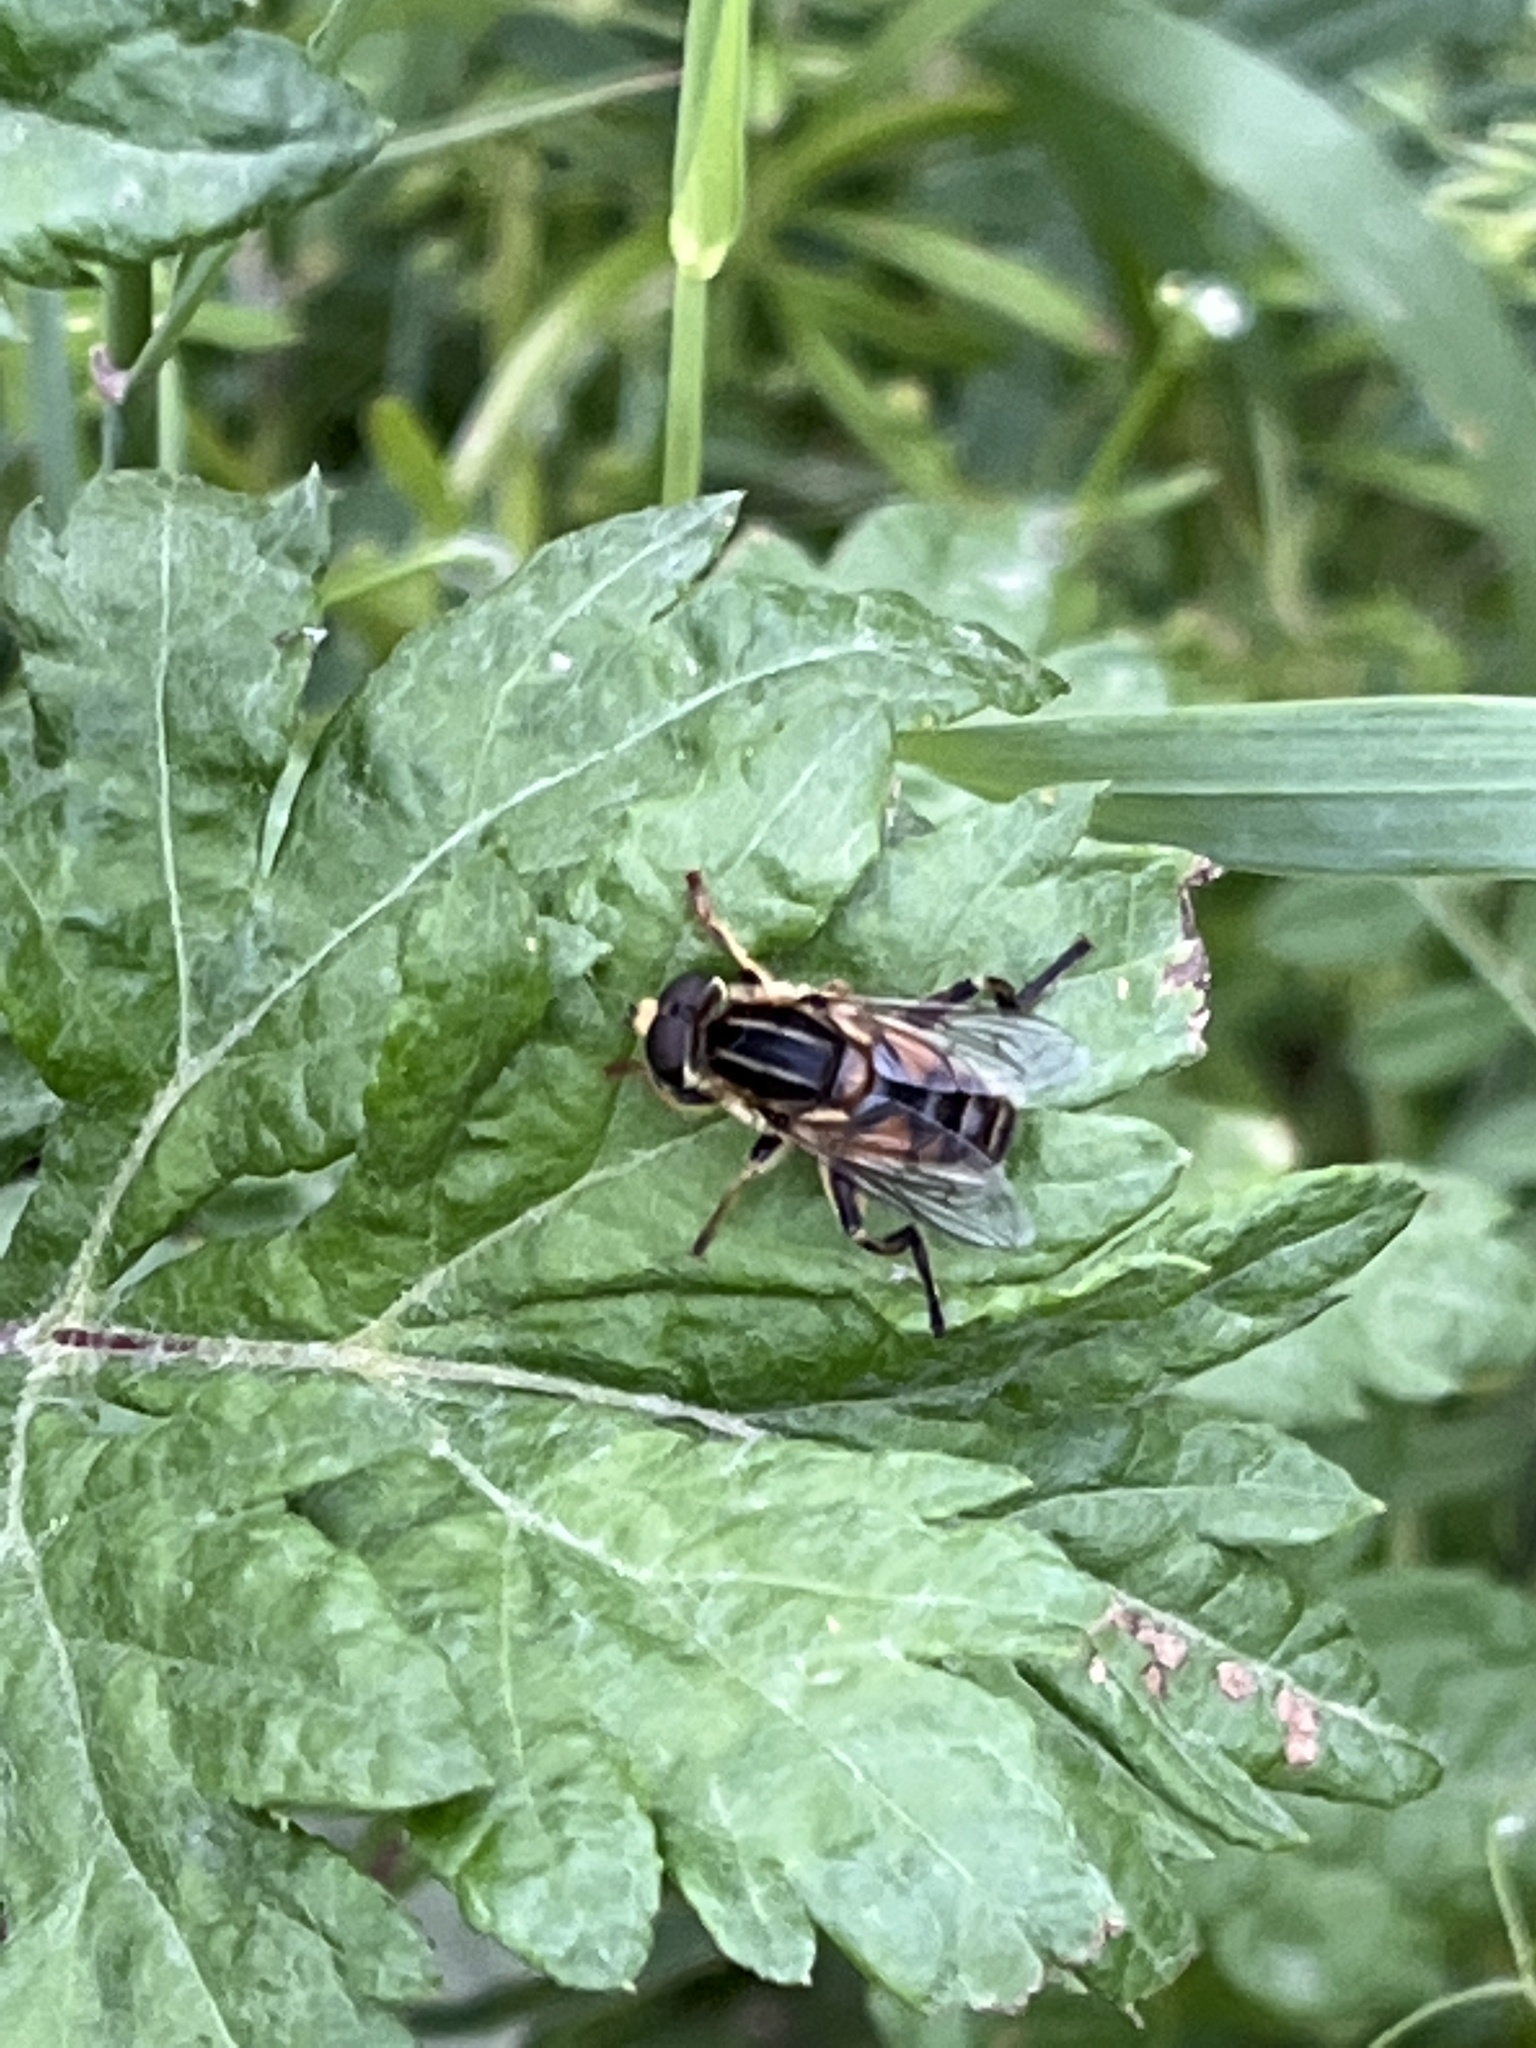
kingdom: Animalia
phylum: Arthropoda
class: Insecta
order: Diptera
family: Syrphidae
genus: Mesembrius
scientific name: Mesembrius peregrinus
